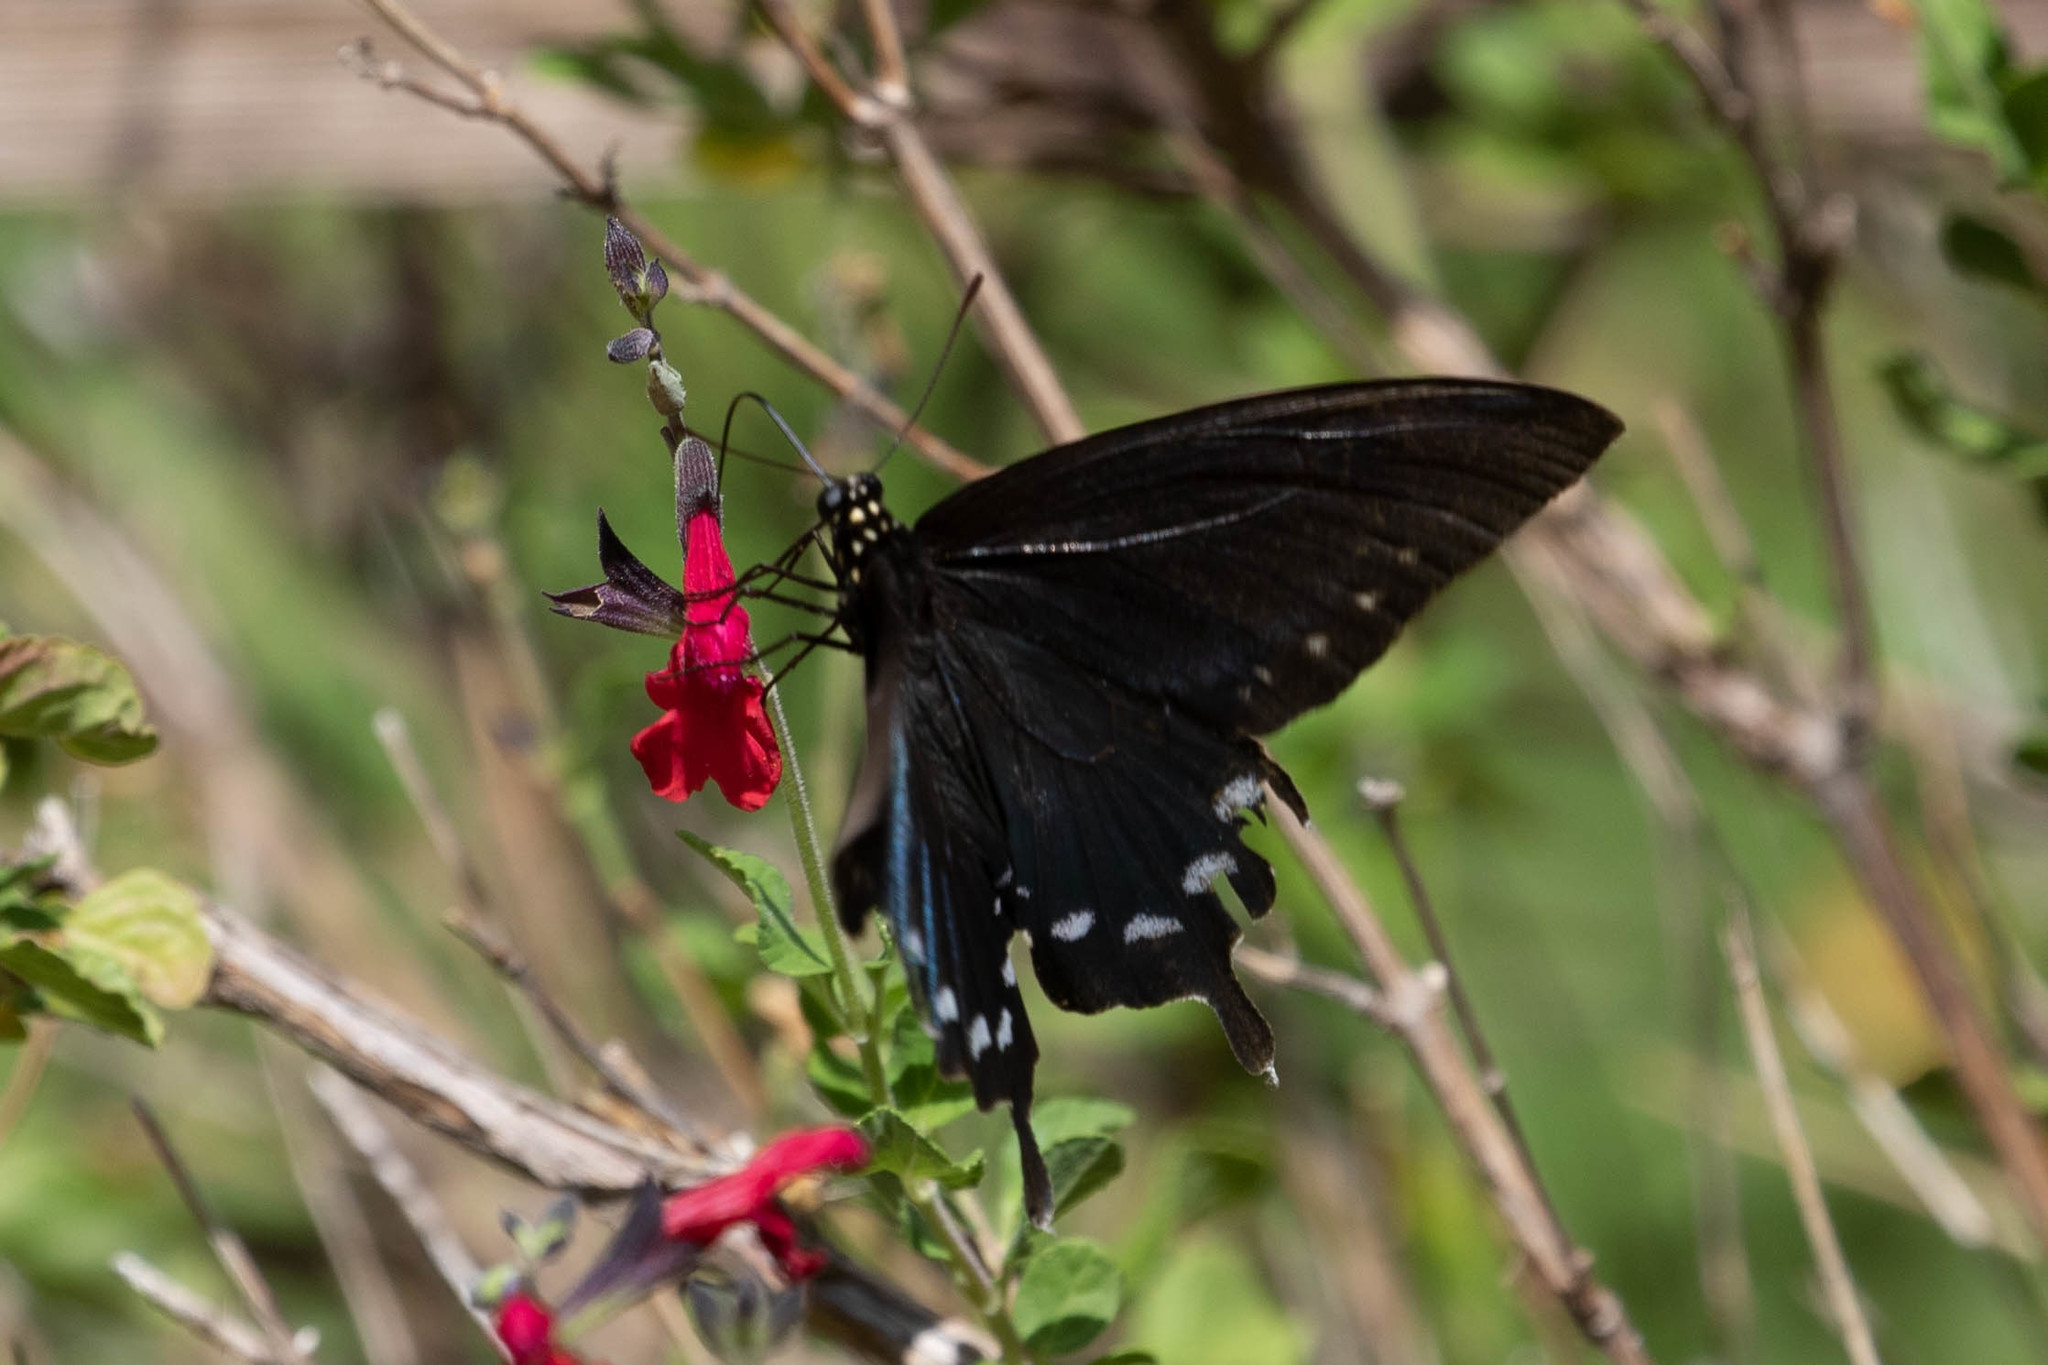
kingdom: Animalia
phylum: Arthropoda
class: Insecta
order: Lepidoptera
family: Papilionidae
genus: Battus
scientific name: Battus philenor
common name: Pipevine swallowtail
